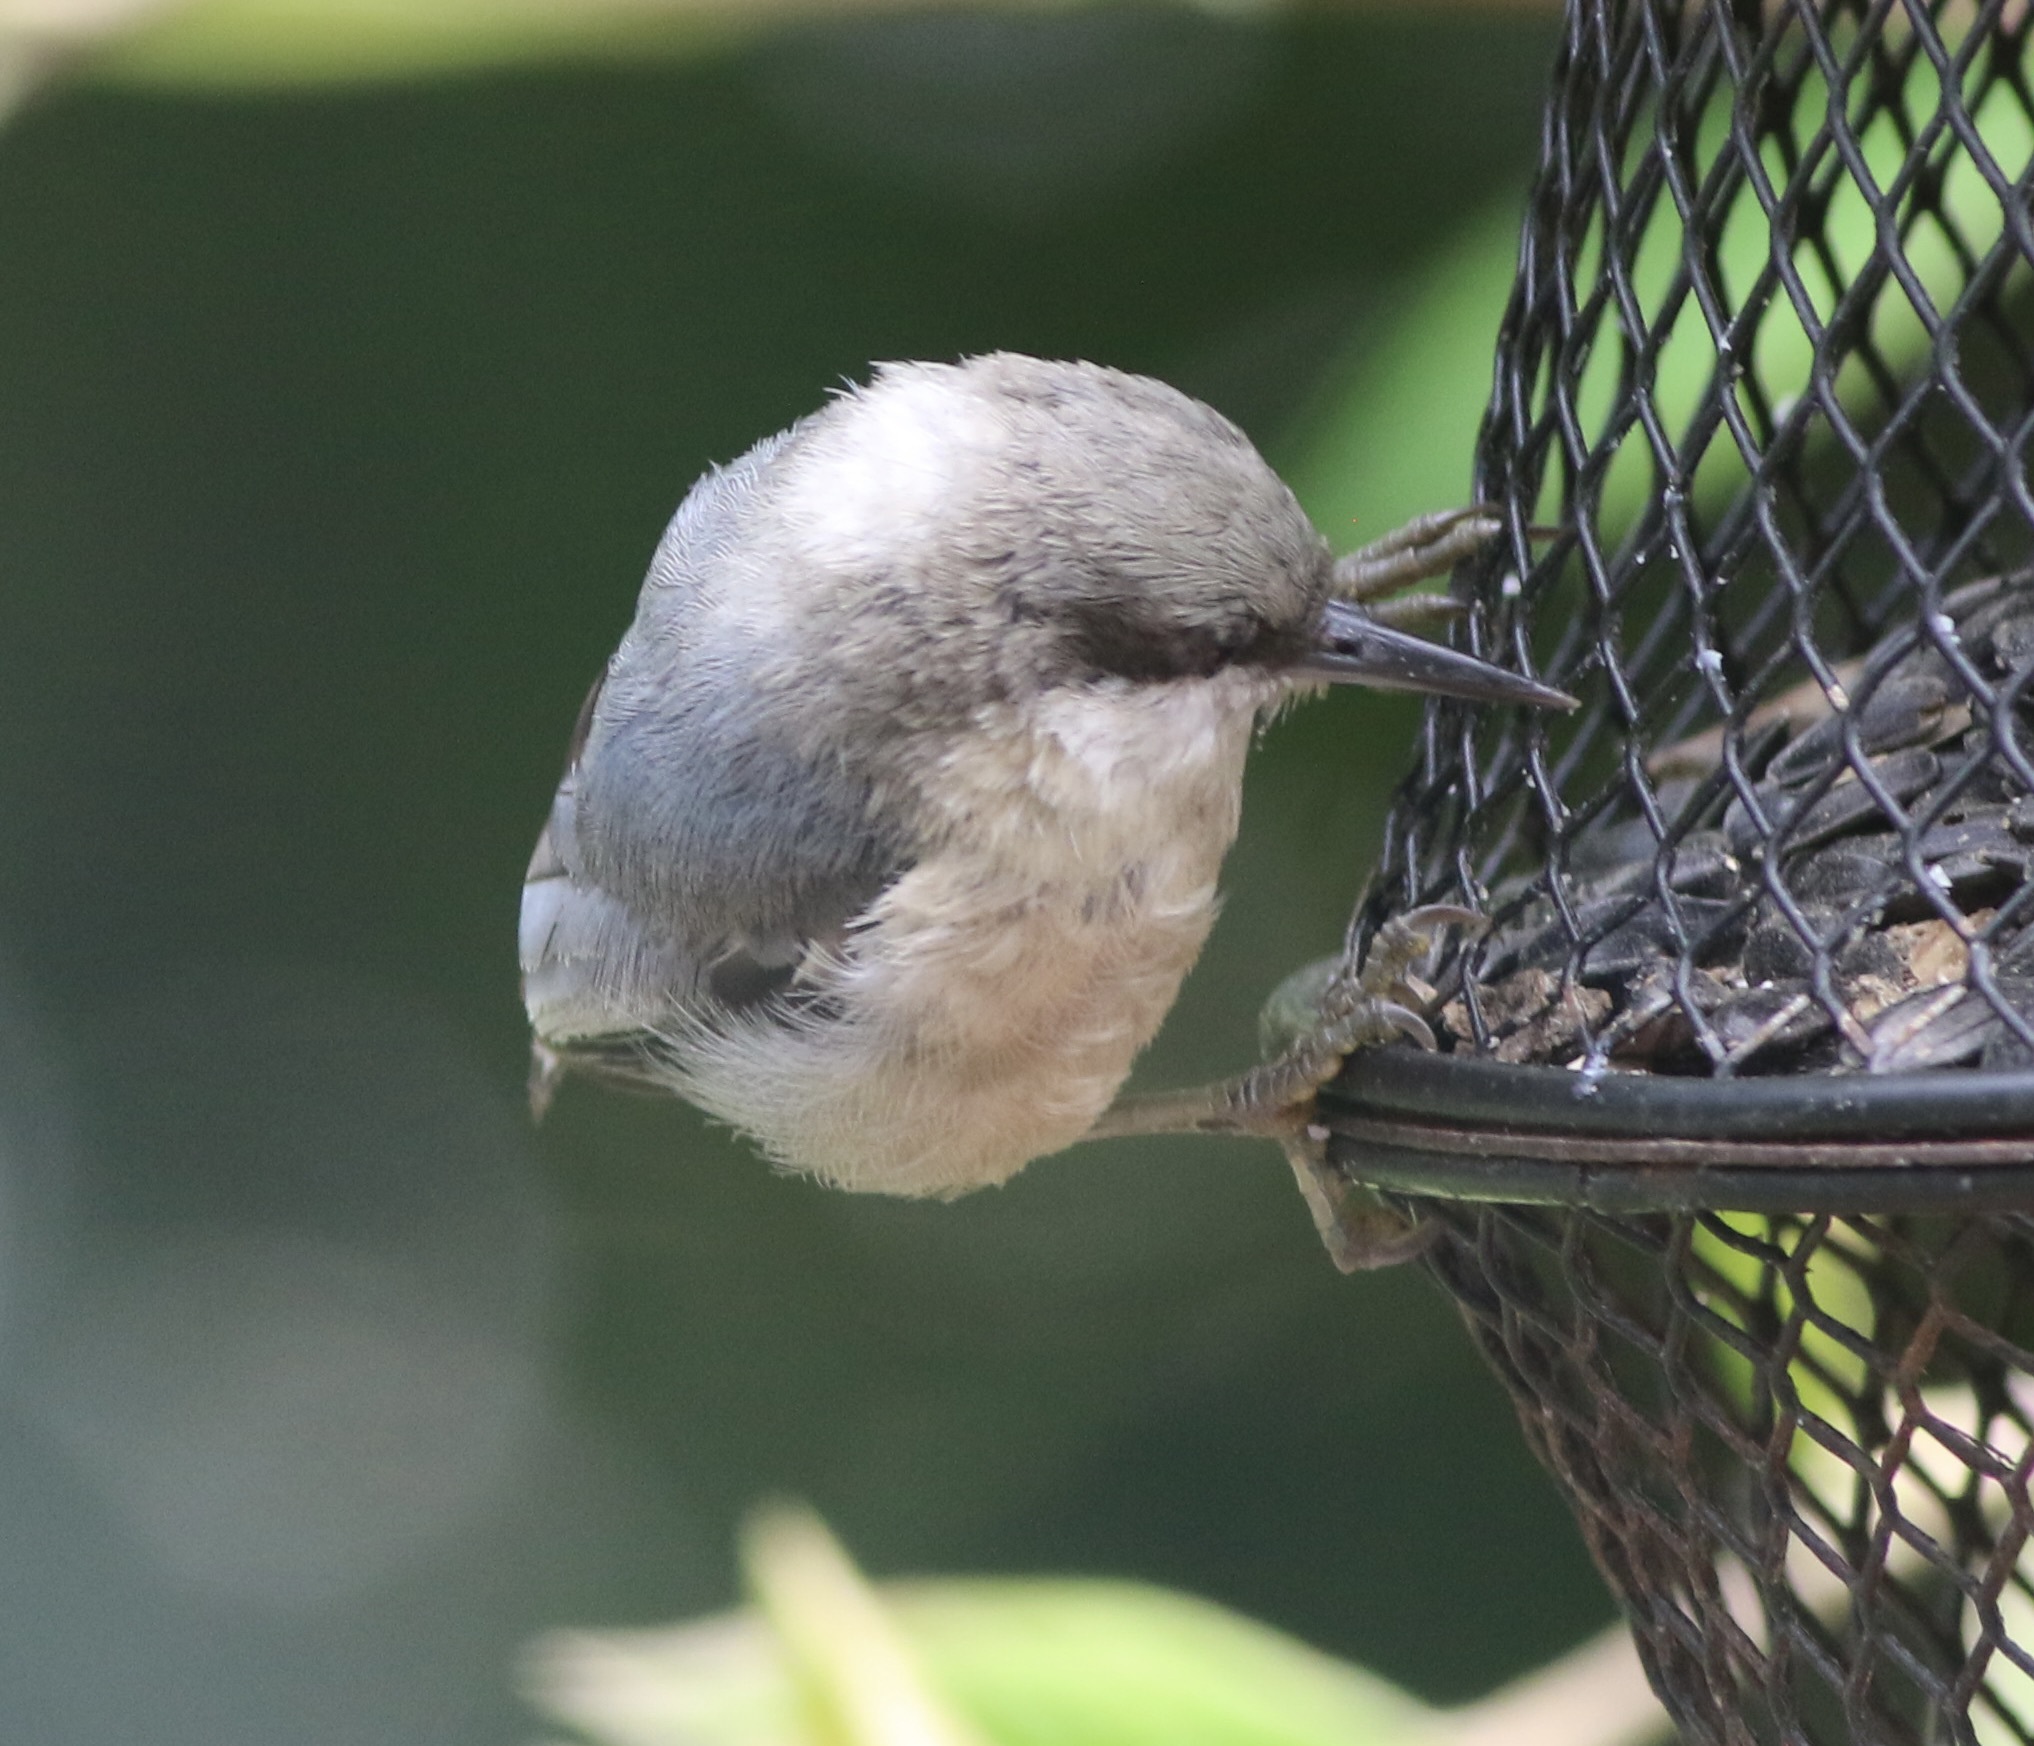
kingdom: Animalia
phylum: Chordata
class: Aves
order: Passeriformes
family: Sittidae
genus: Sitta
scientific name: Sitta pygmaea
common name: Pygmy nuthatch
